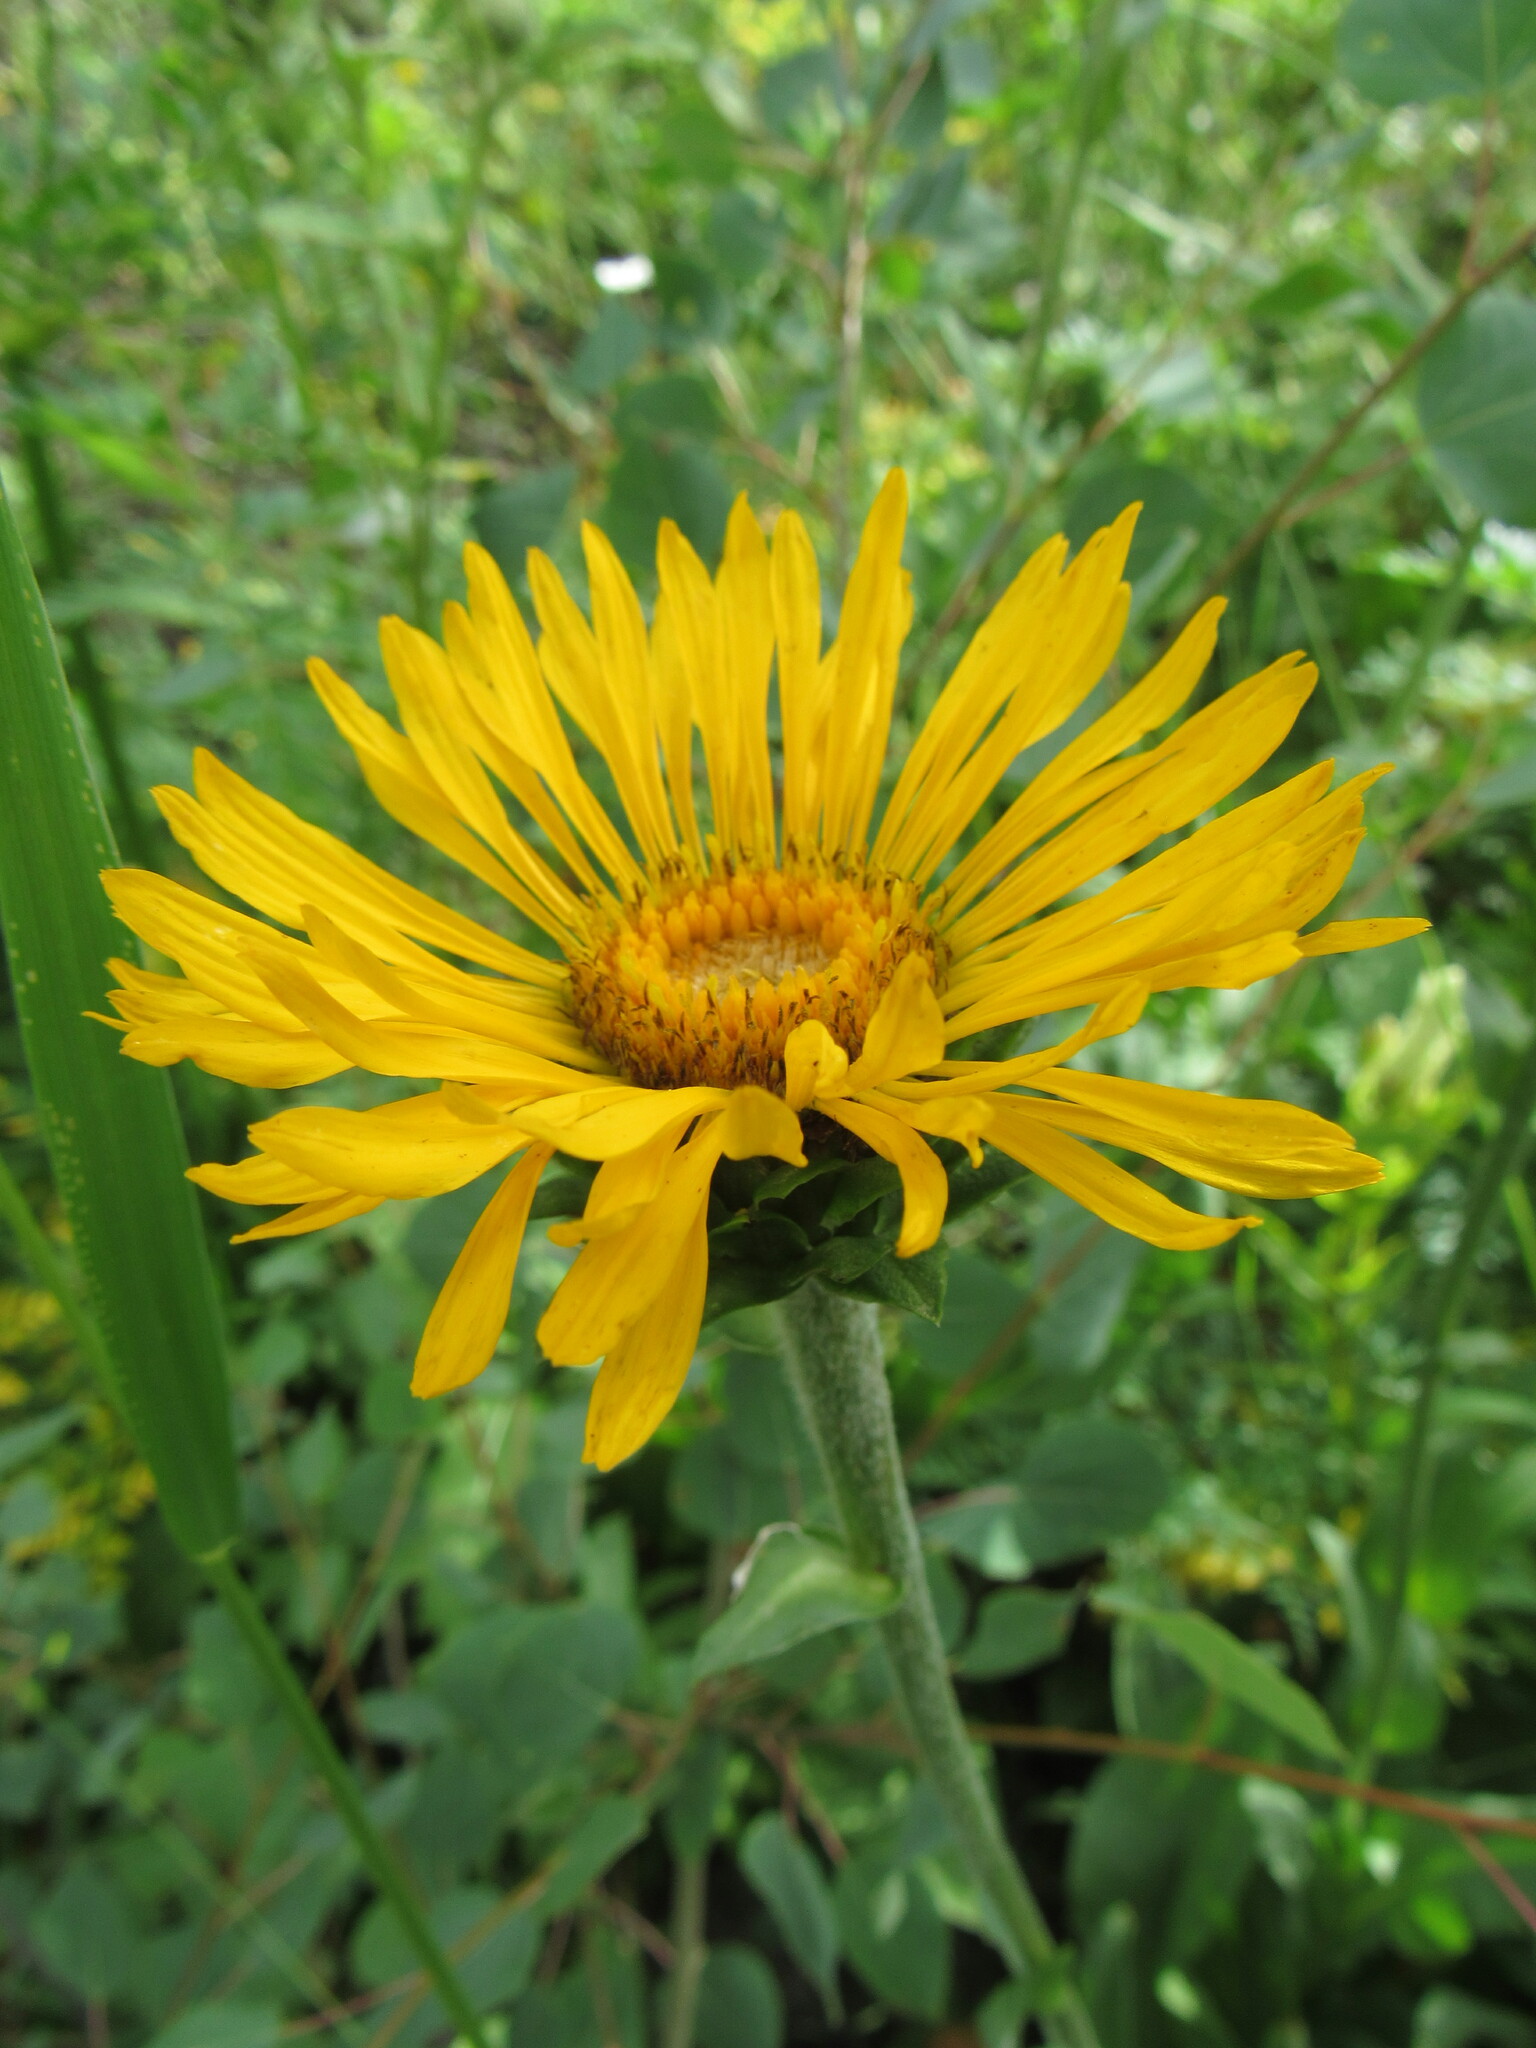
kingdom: Plantae
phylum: Tracheophyta
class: Magnoliopsida
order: Asterales
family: Asteraceae
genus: Pyrrocoma
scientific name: Pyrrocoma crocea
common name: Curly-head goldenweed
